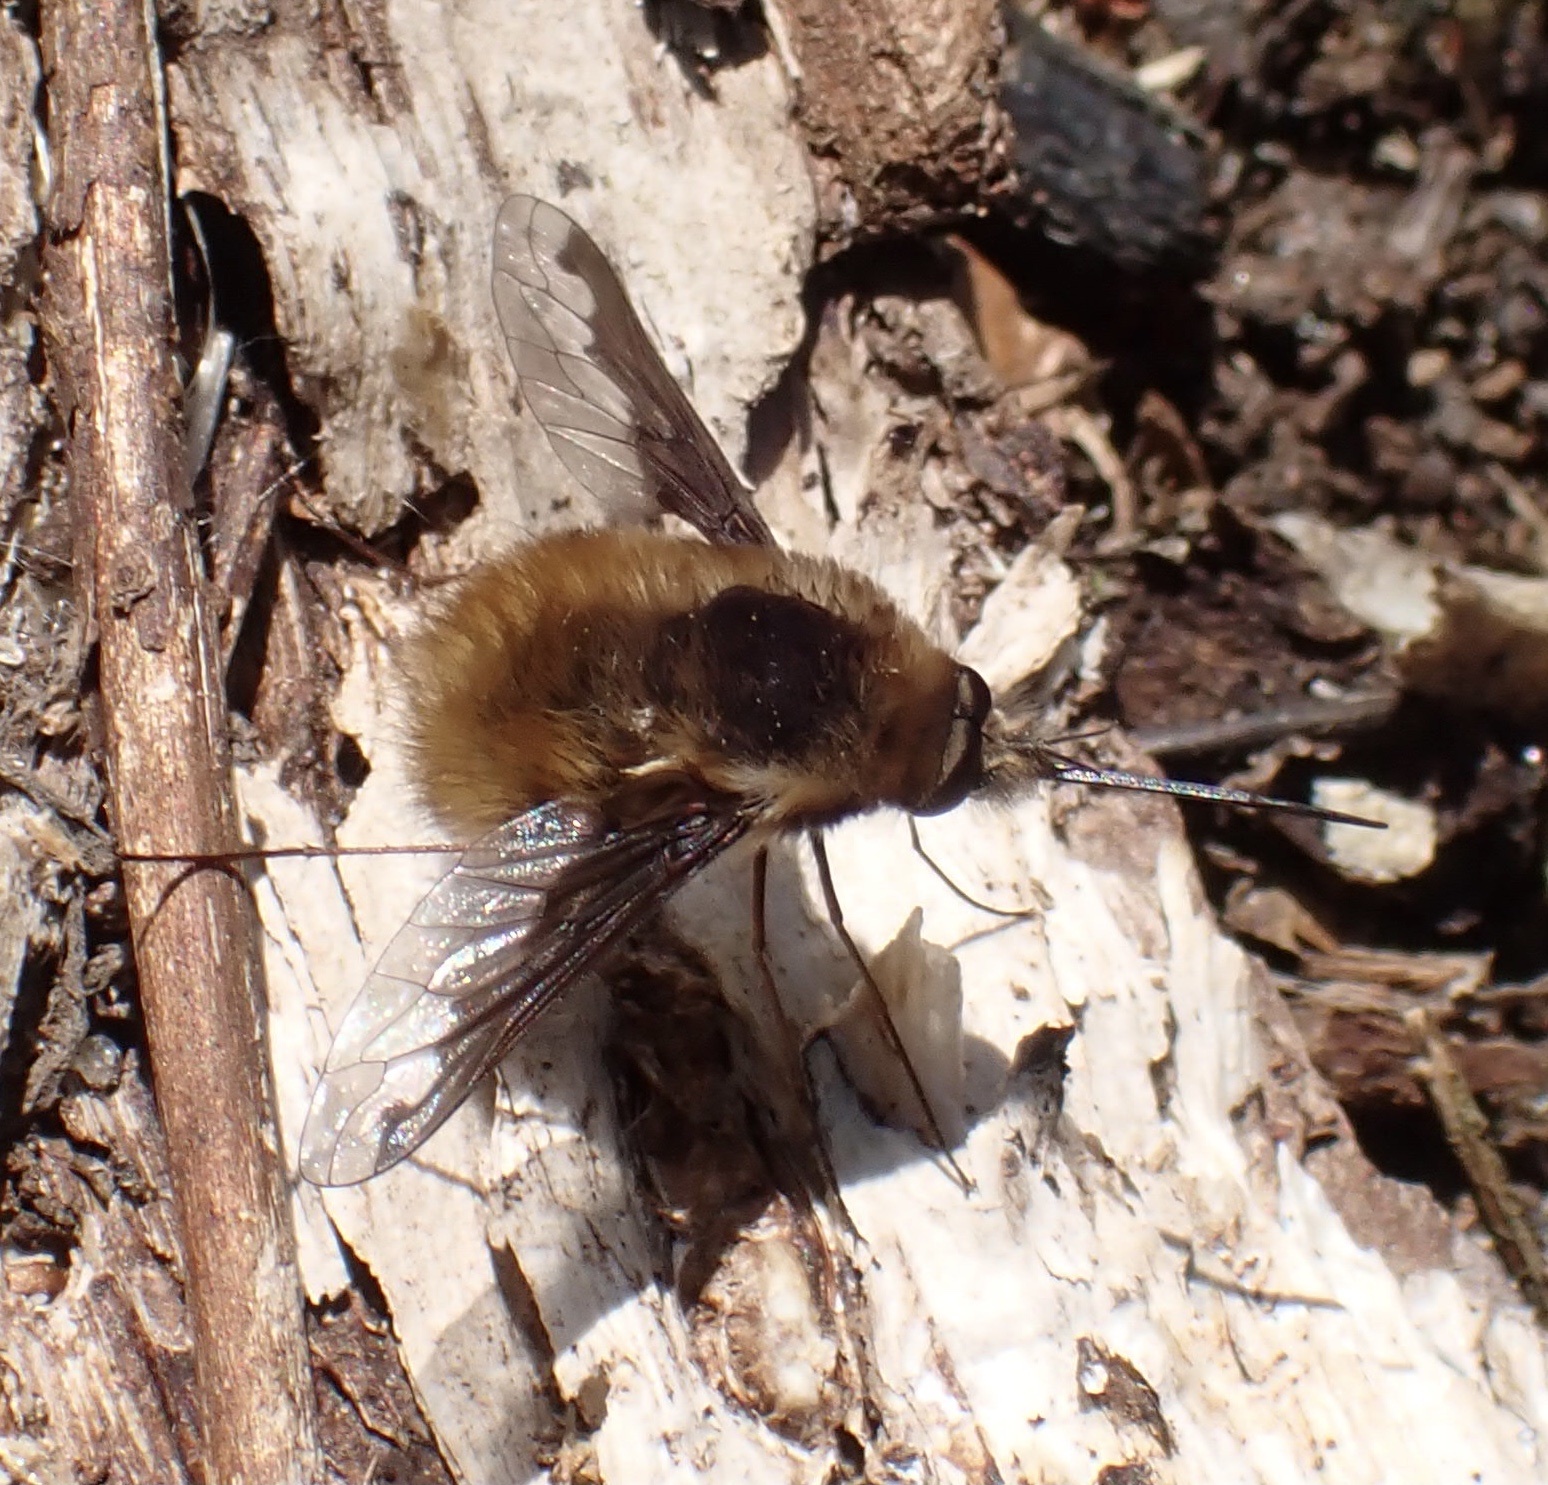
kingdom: Animalia
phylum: Arthropoda
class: Insecta
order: Diptera
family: Bombyliidae
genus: Bombylius
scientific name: Bombylius major
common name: Bee fly
